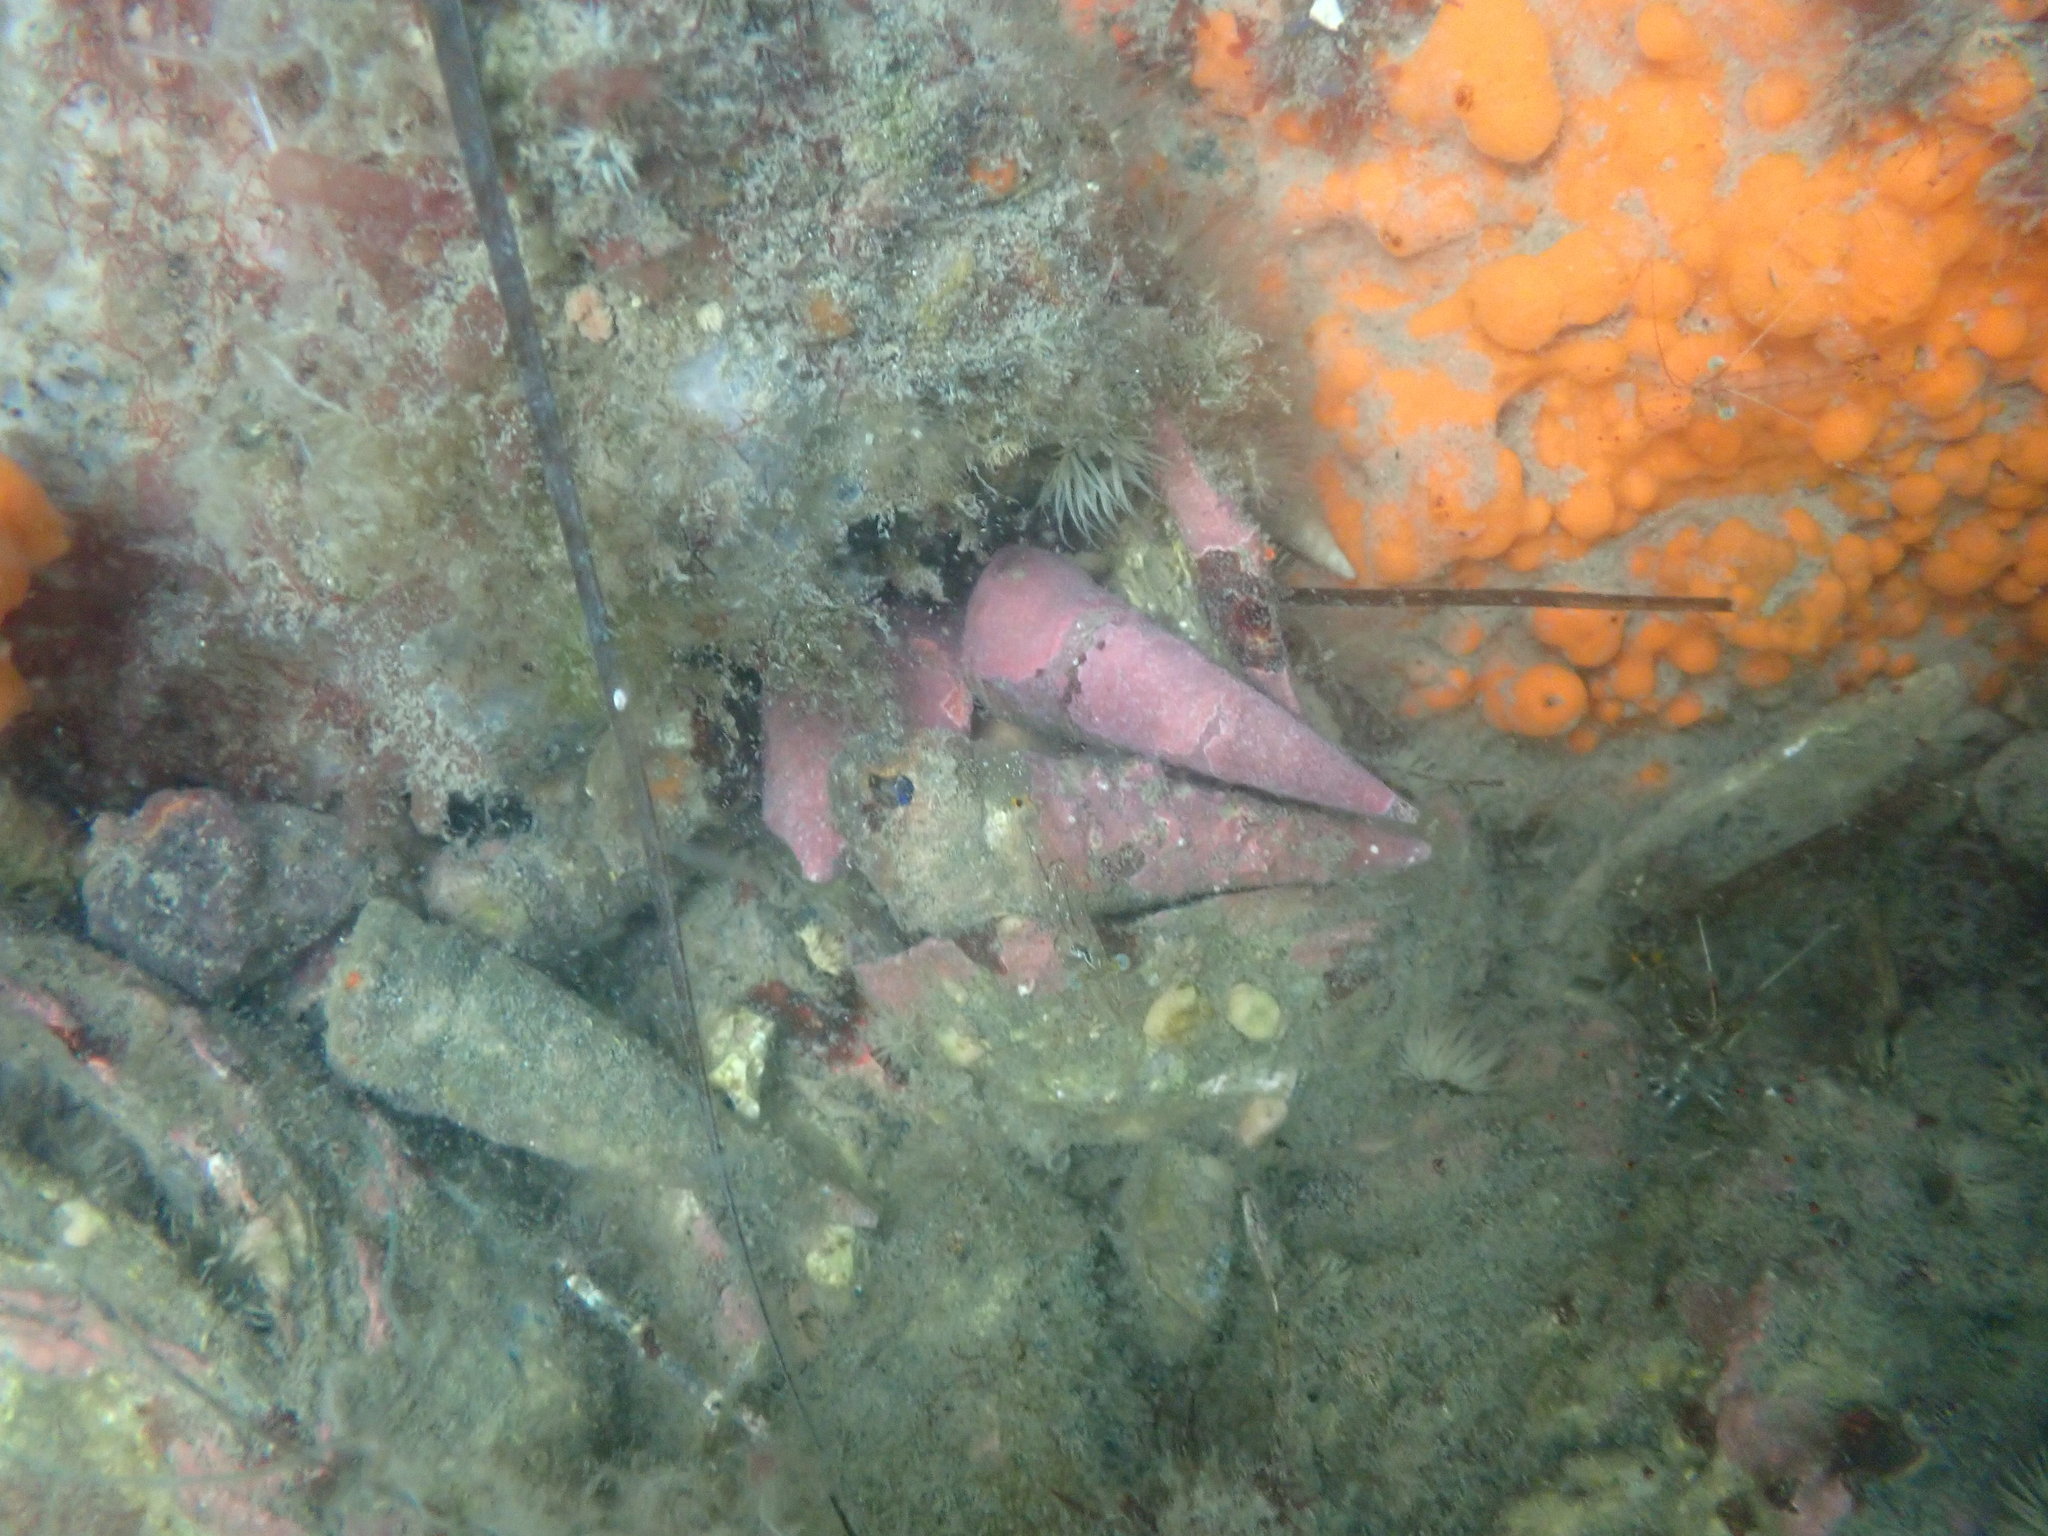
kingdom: Animalia
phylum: Mollusca
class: Gastropoda
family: Turritellidae
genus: Maoricolpus
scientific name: Maoricolpus roseus
